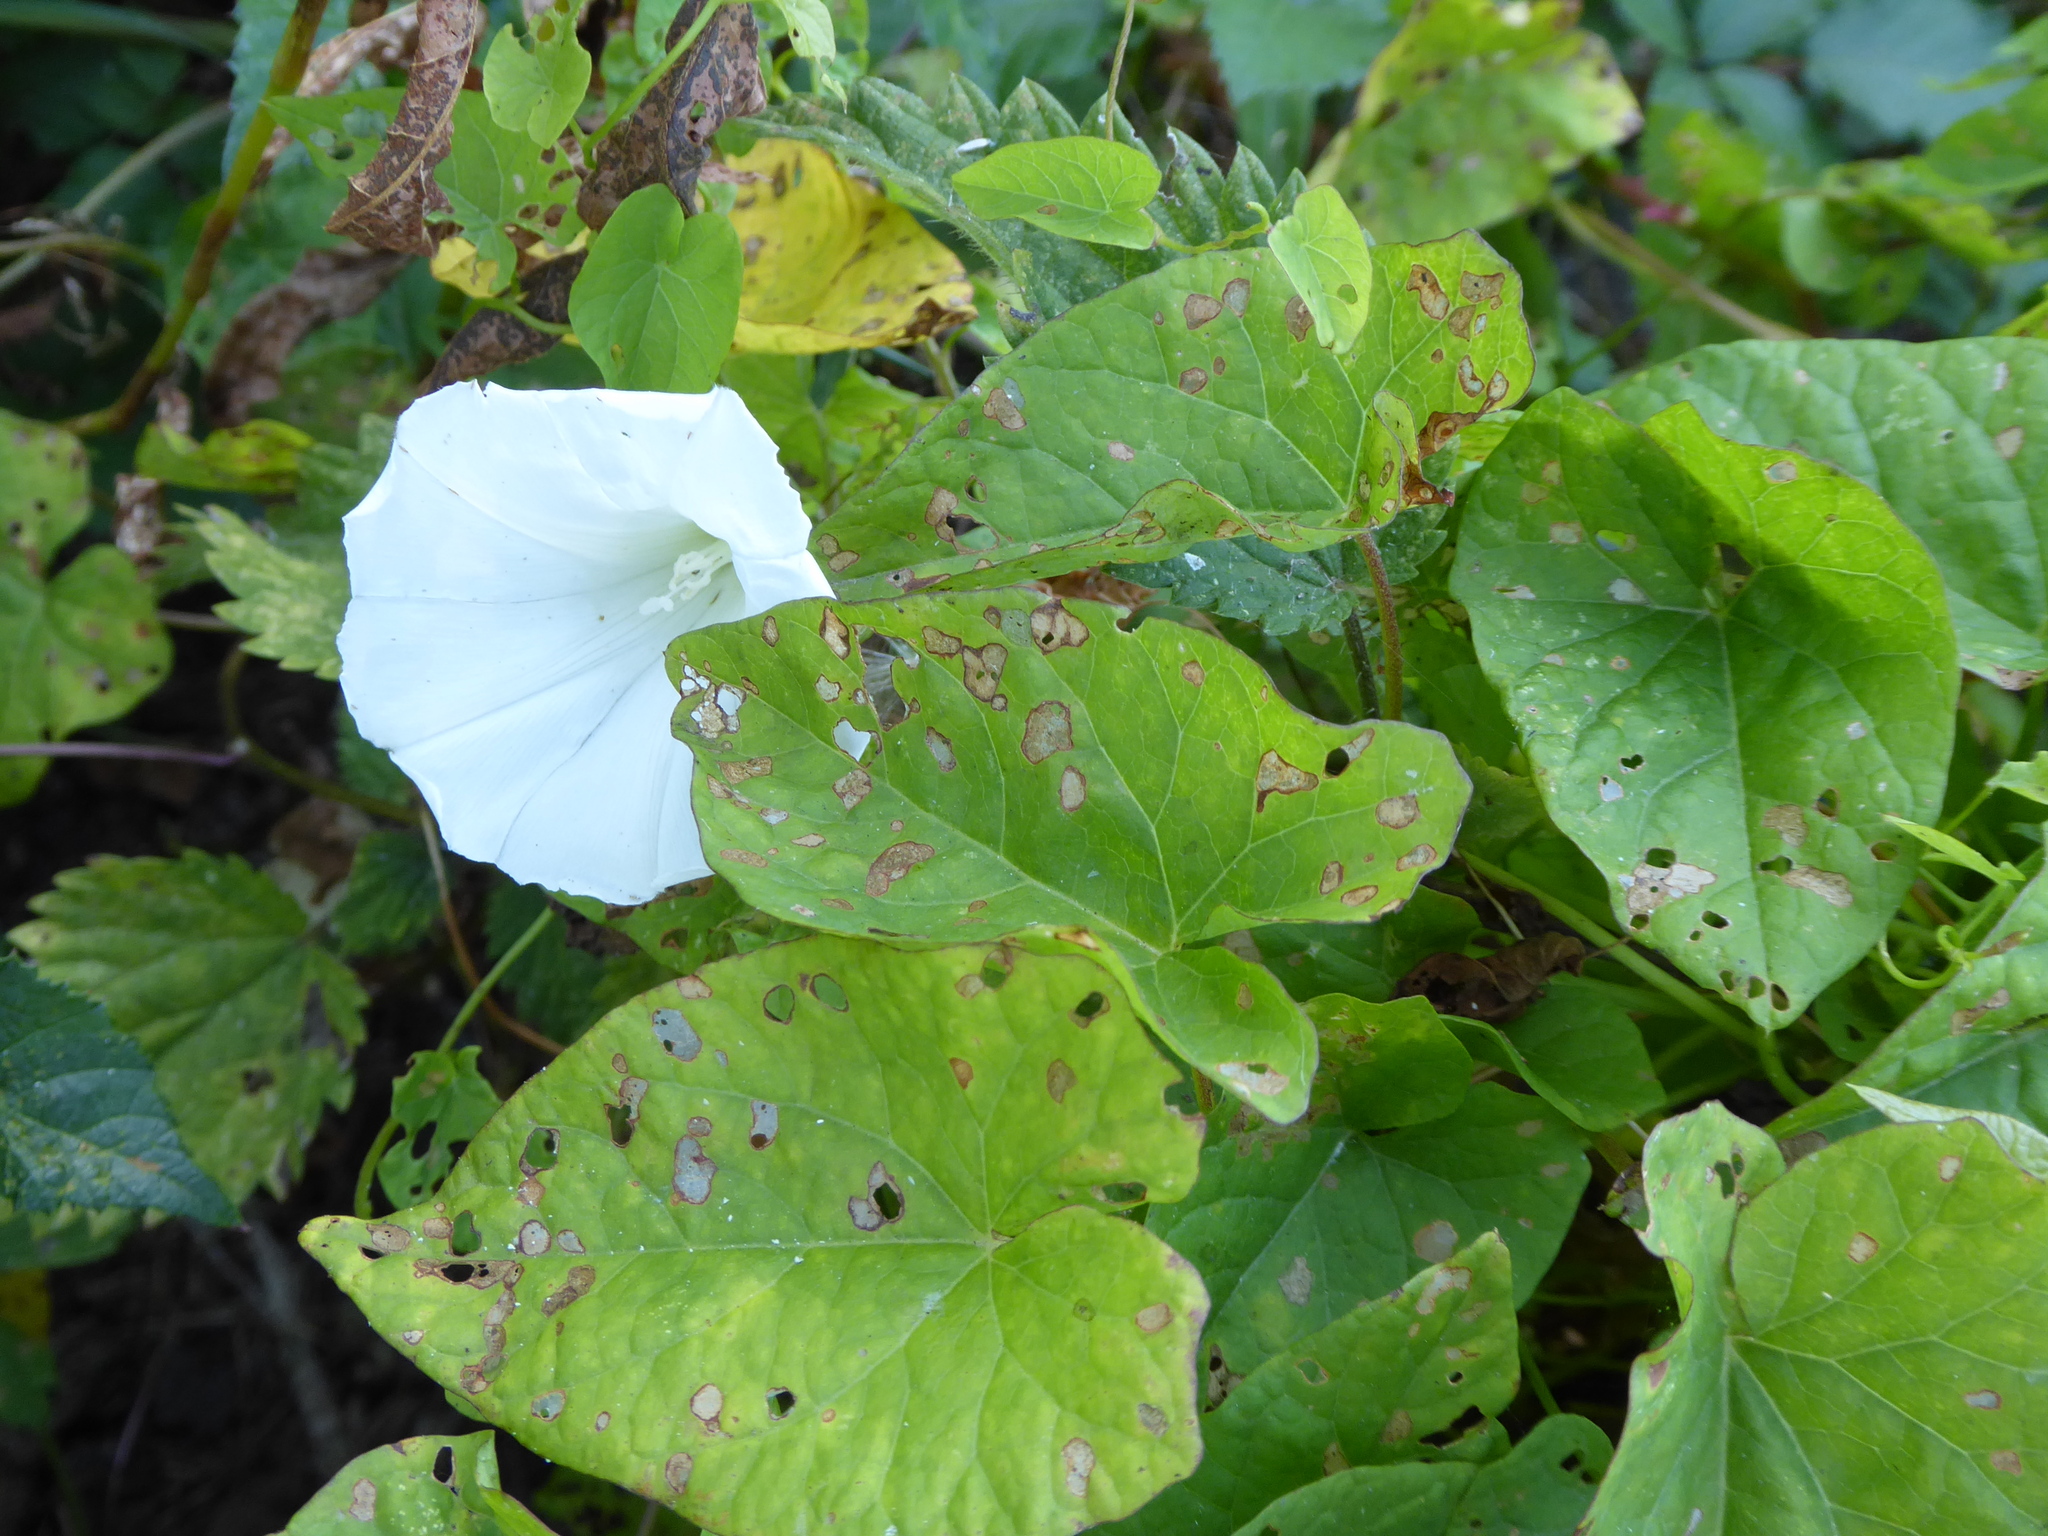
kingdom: Plantae
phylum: Tracheophyta
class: Magnoliopsida
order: Solanales
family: Convolvulaceae
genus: Calystegia
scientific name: Calystegia sepium
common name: Hedge bindweed
